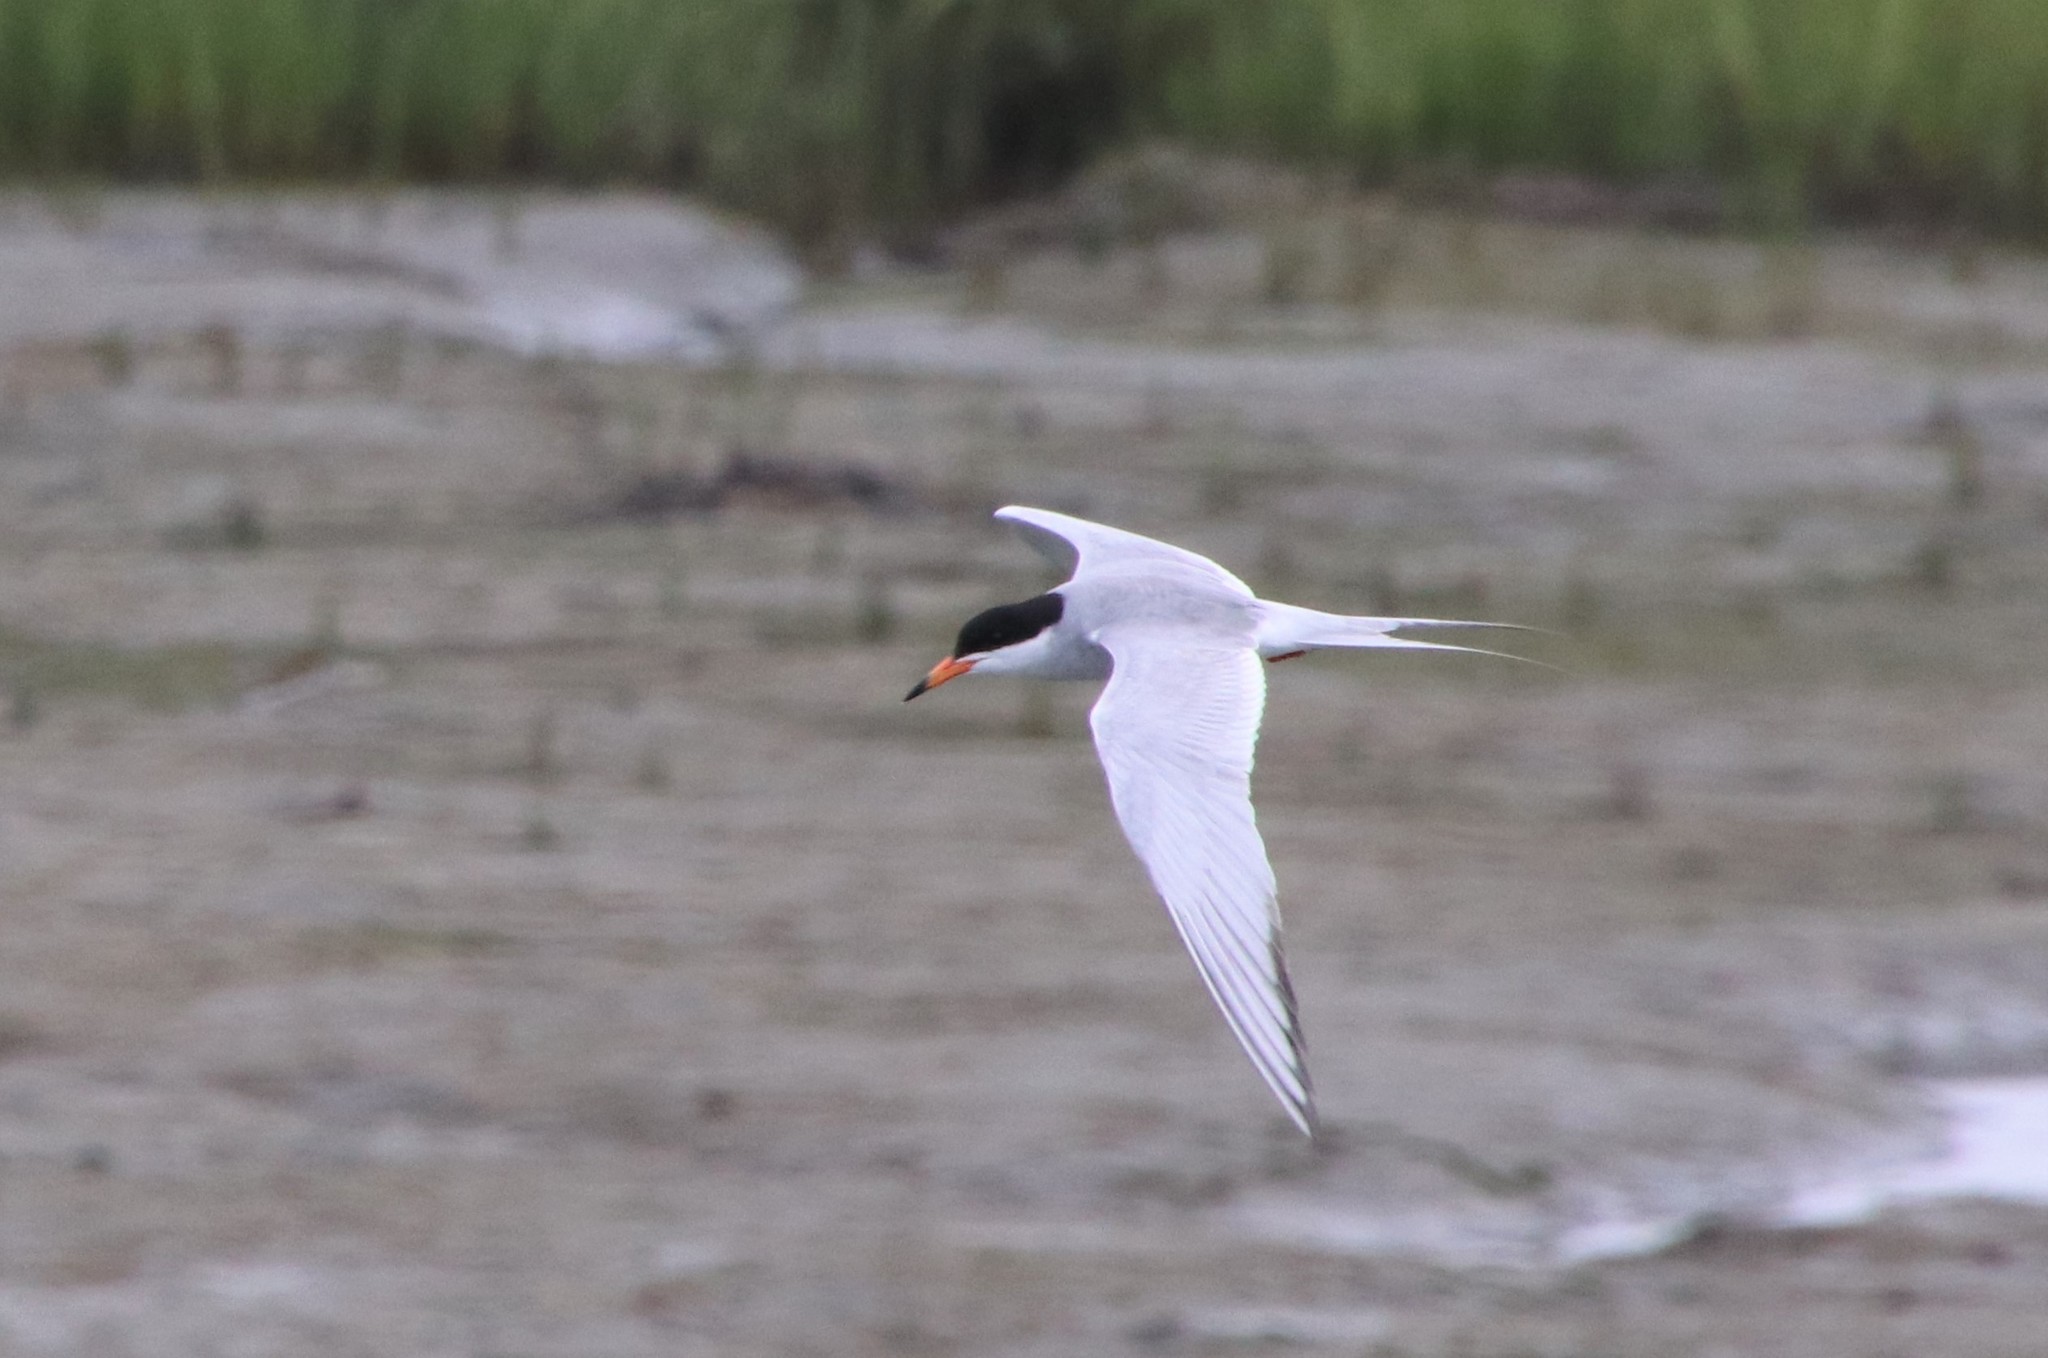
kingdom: Animalia
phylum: Chordata
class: Aves
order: Charadriiformes
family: Laridae
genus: Sterna
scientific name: Sterna forsteri
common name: Forster's tern
